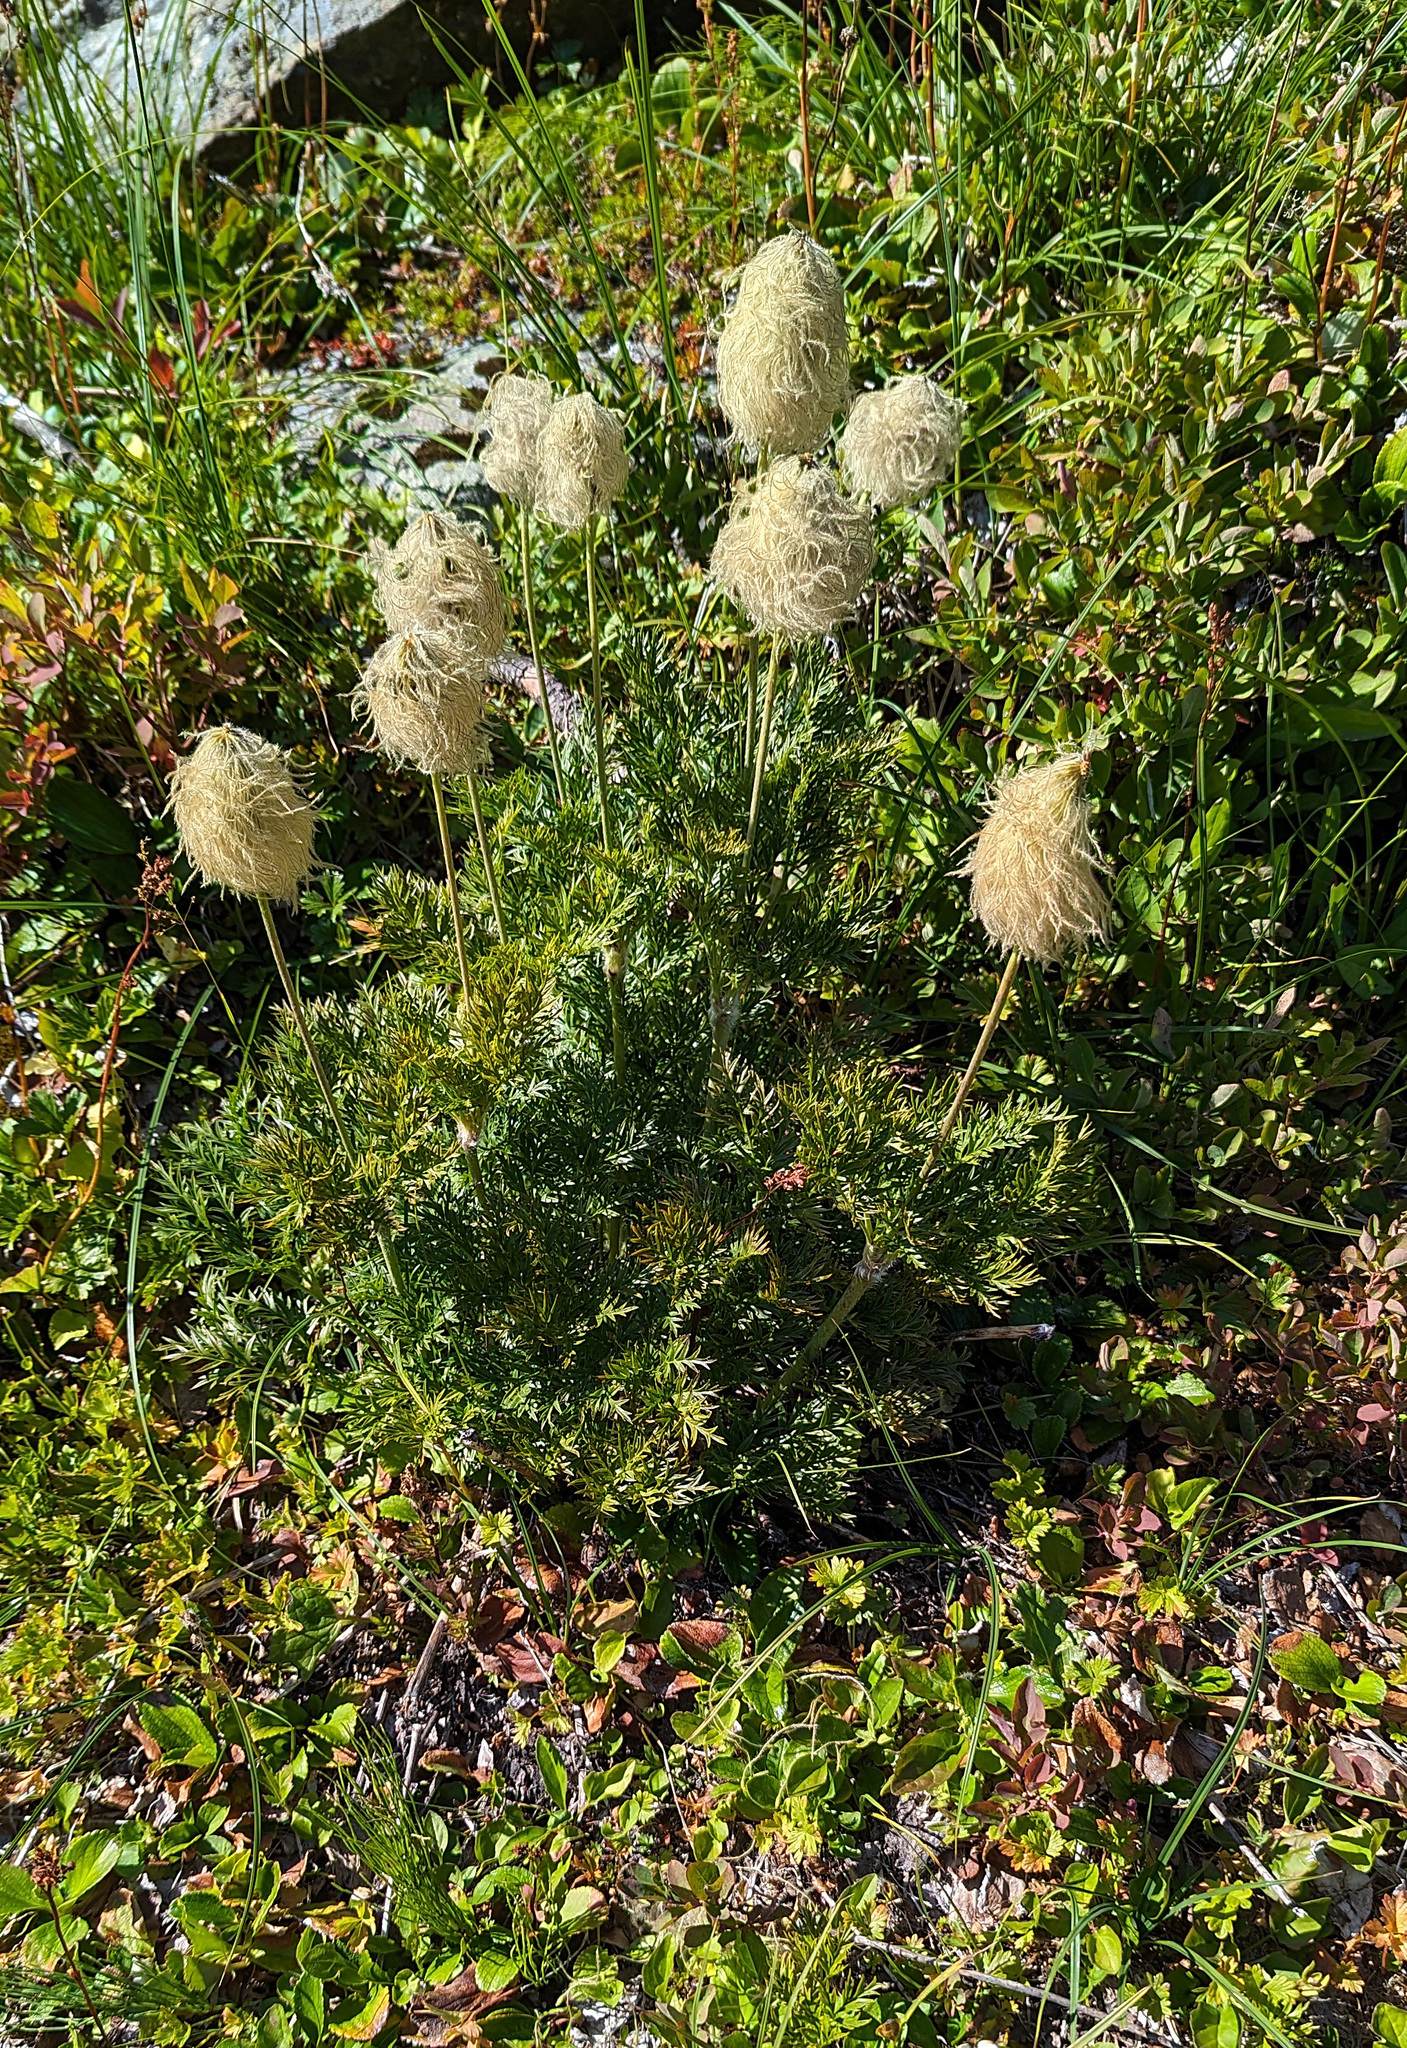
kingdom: Plantae
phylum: Tracheophyta
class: Magnoliopsida
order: Ranunculales
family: Ranunculaceae
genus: Pulsatilla
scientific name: Pulsatilla occidentalis
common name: Mountain pasqueflower
